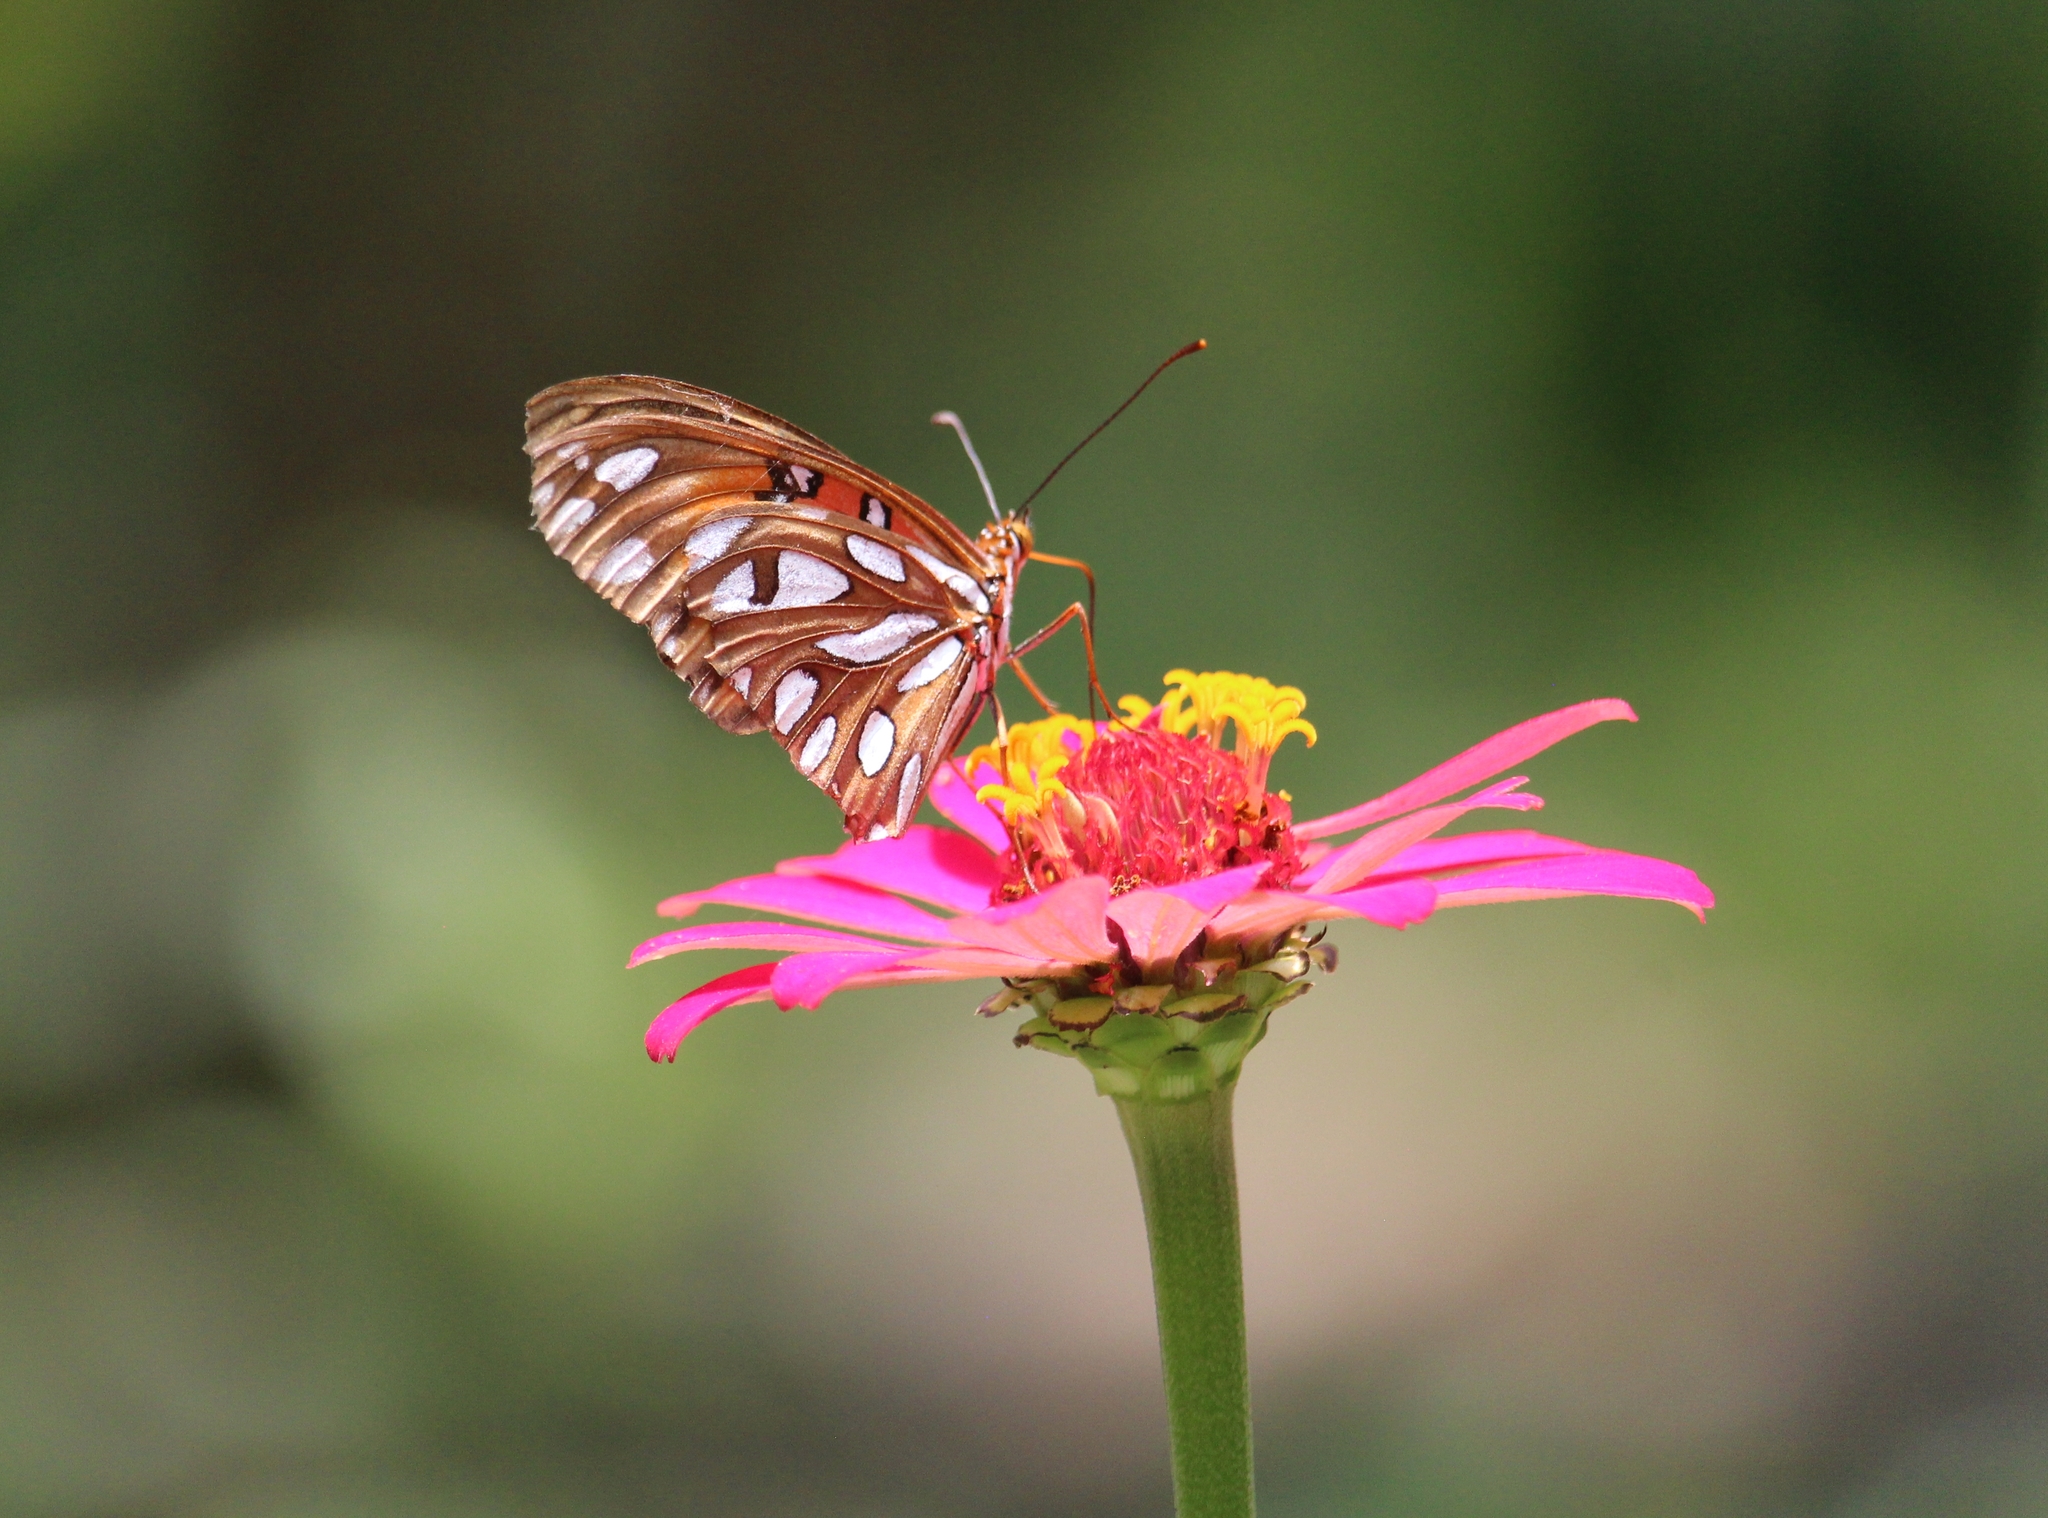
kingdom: Animalia
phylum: Arthropoda
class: Insecta
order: Lepidoptera
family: Nymphalidae
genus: Dione
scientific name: Dione vanillae
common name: Gulf fritillary
